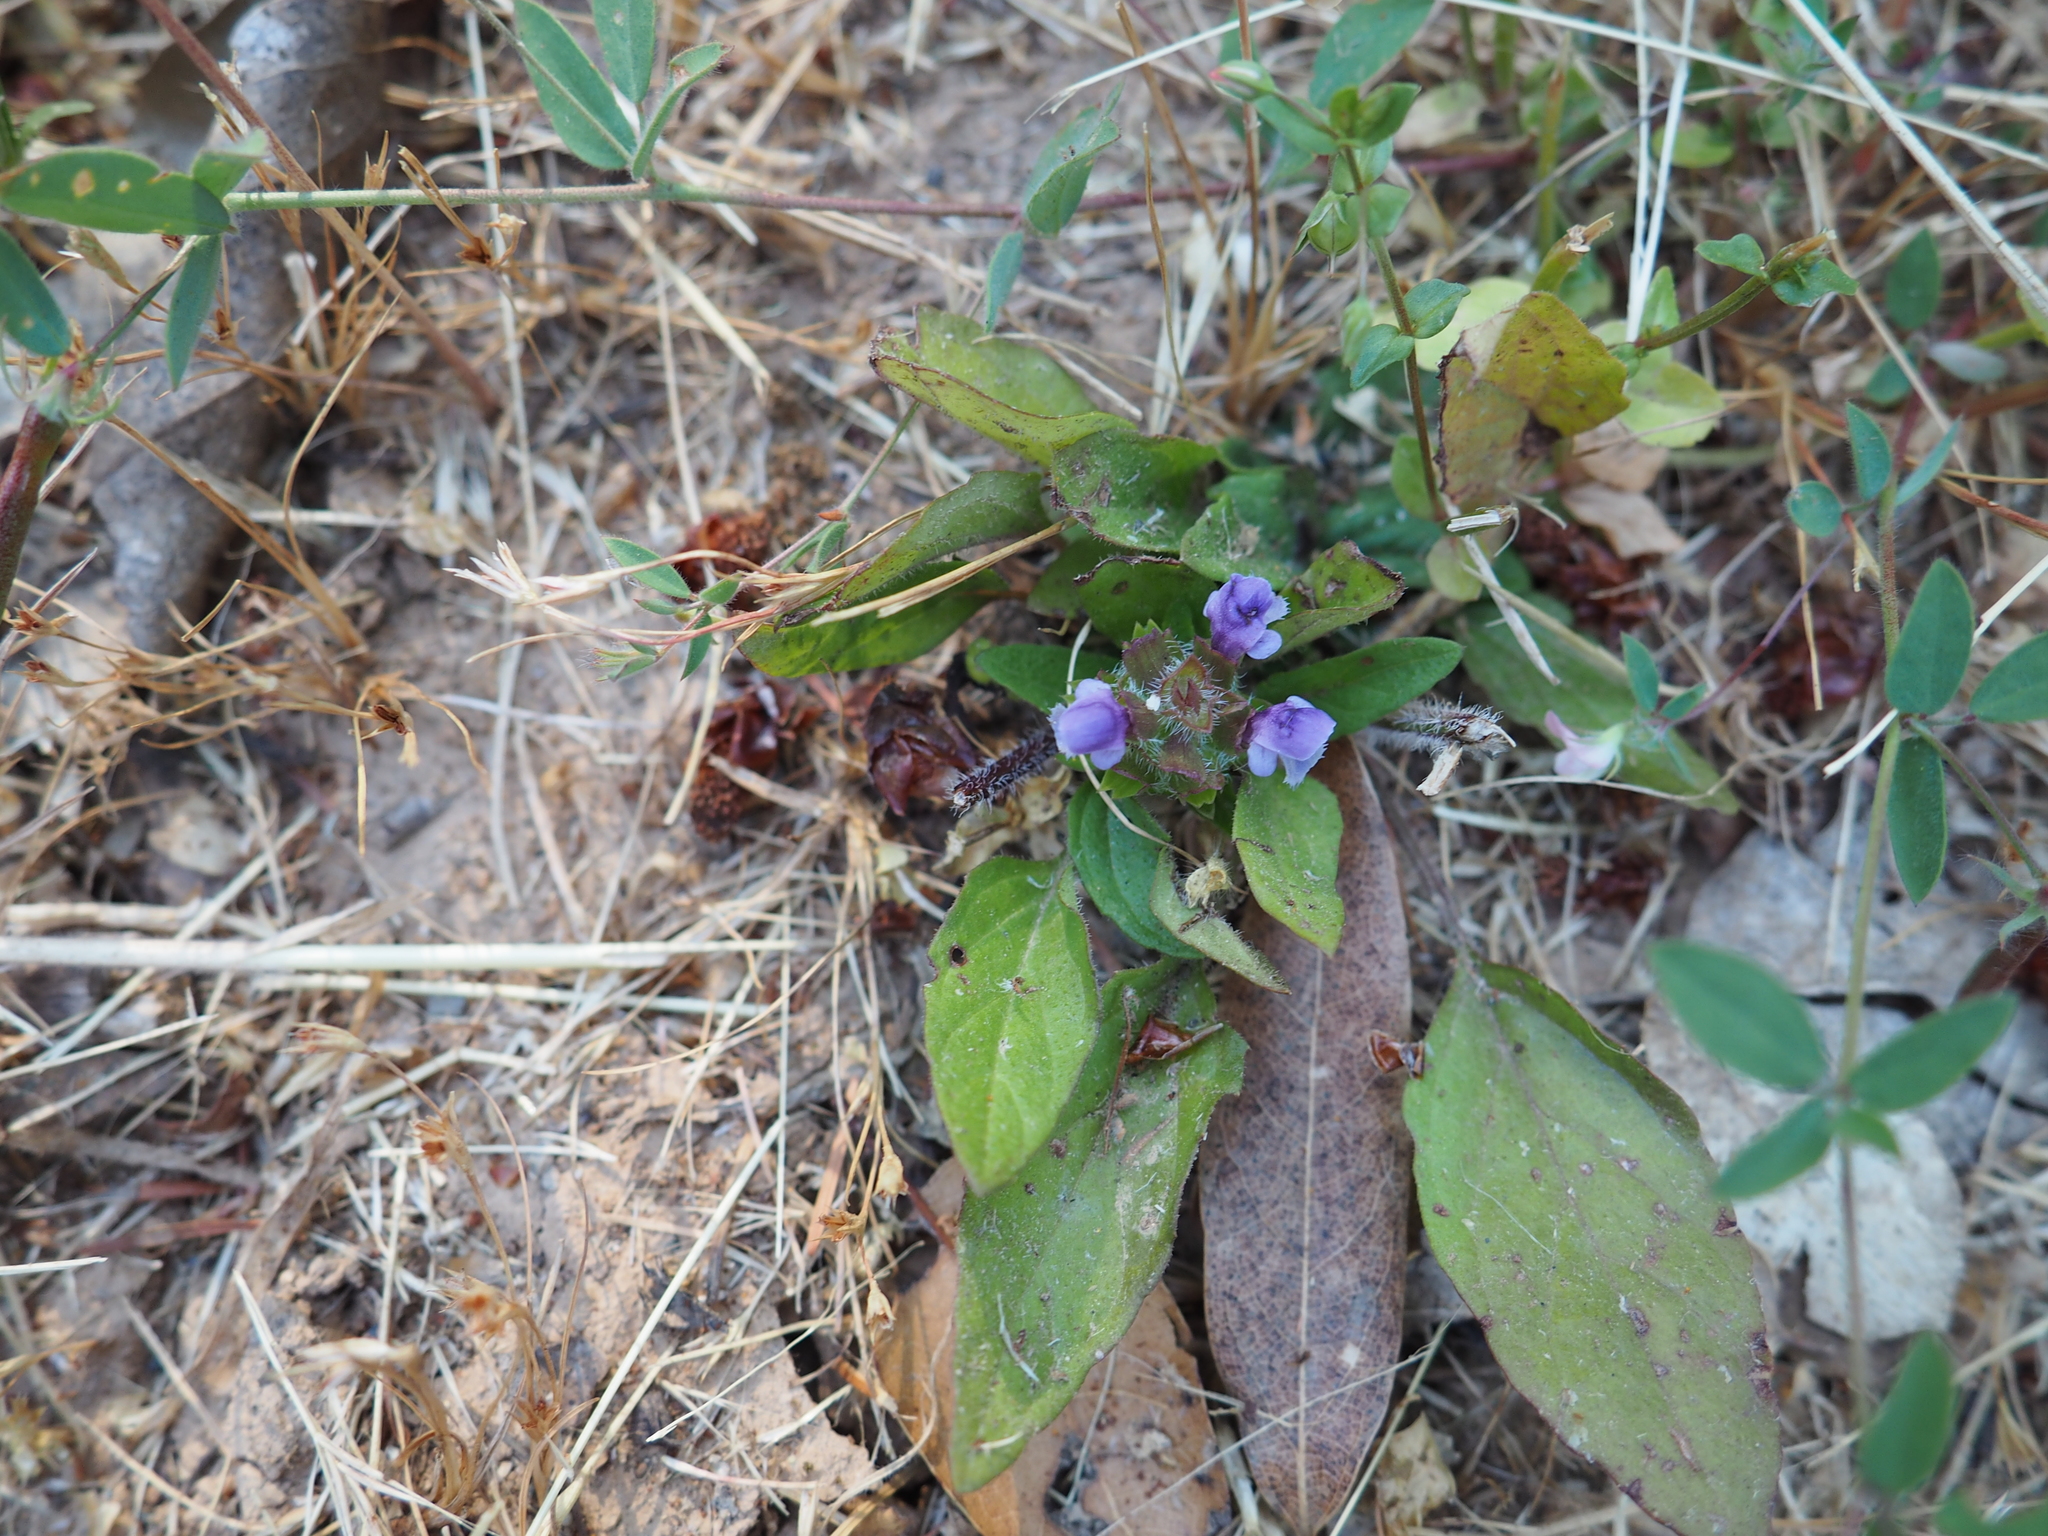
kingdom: Plantae
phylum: Tracheophyta
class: Magnoliopsida
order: Lamiales
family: Lamiaceae
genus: Prunella
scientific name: Prunella vulgaris
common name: Heal-all
